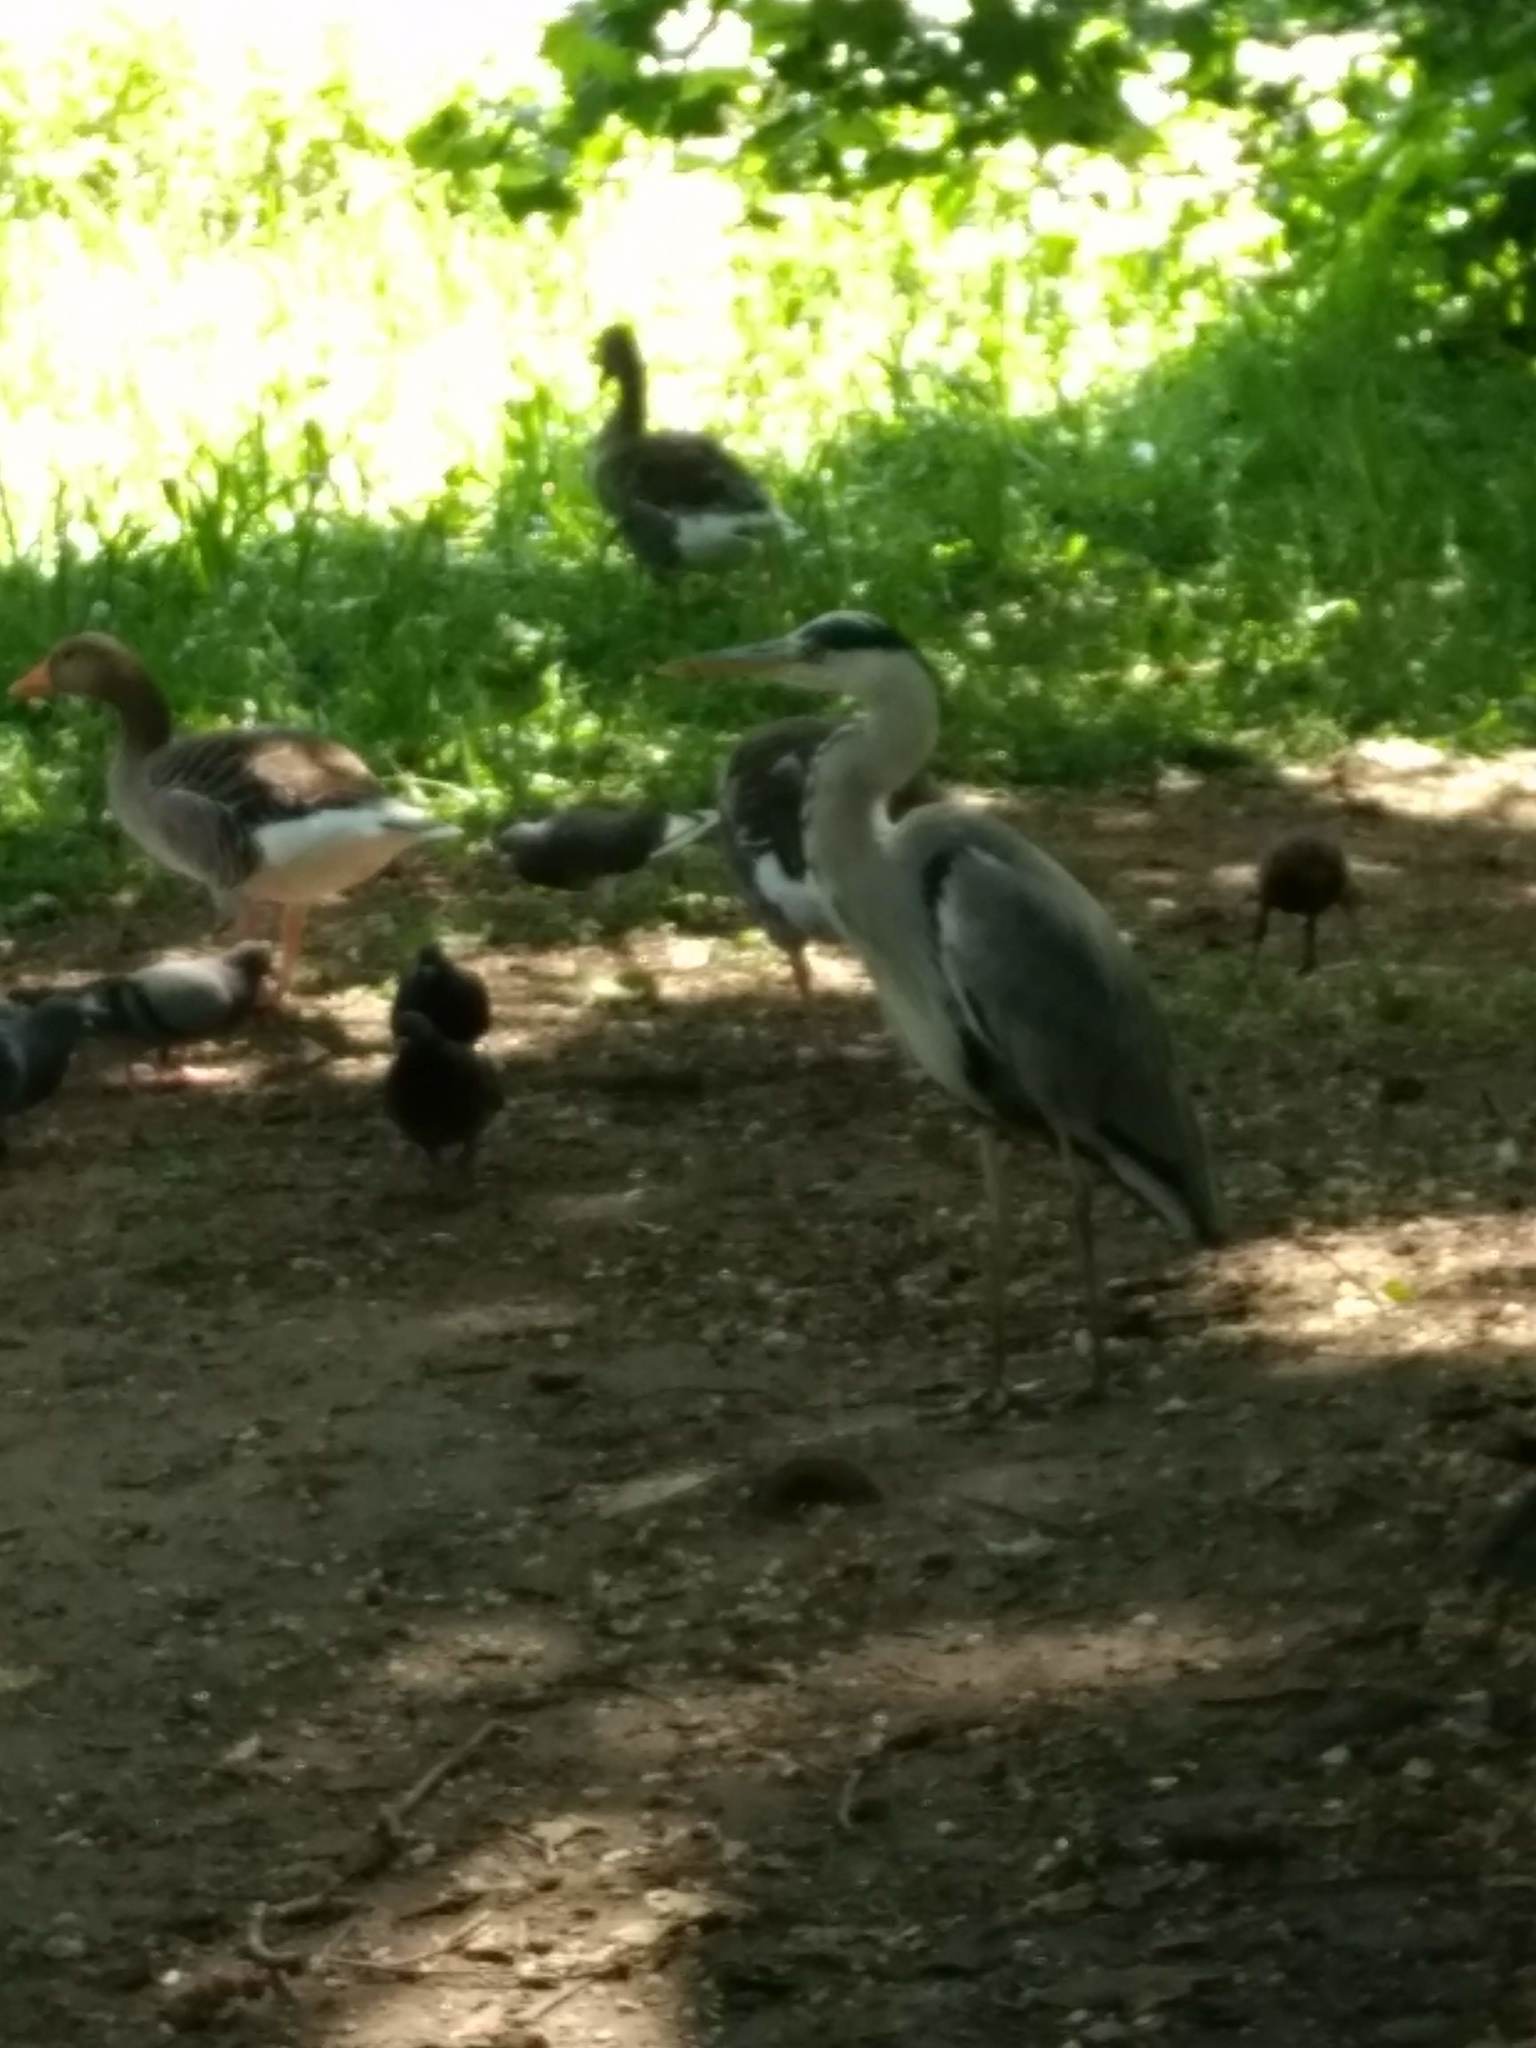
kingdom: Animalia
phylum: Chordata
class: Aves
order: Pelecaniformes
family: Ardeidae
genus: Ardea
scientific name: Ardea cinerea
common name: Grey heron
